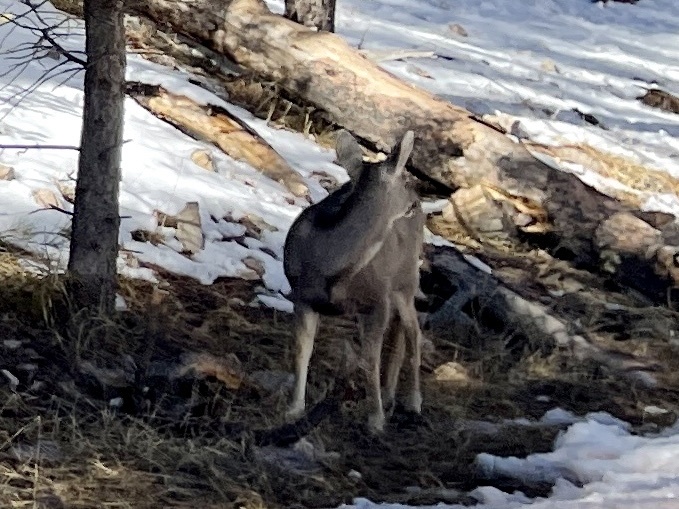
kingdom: Animalia
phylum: Chordata
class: Mammalia
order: Artiodactyla
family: Cervidae
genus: Odocoileus
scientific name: Odocoileus hemionus
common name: Mule deer
